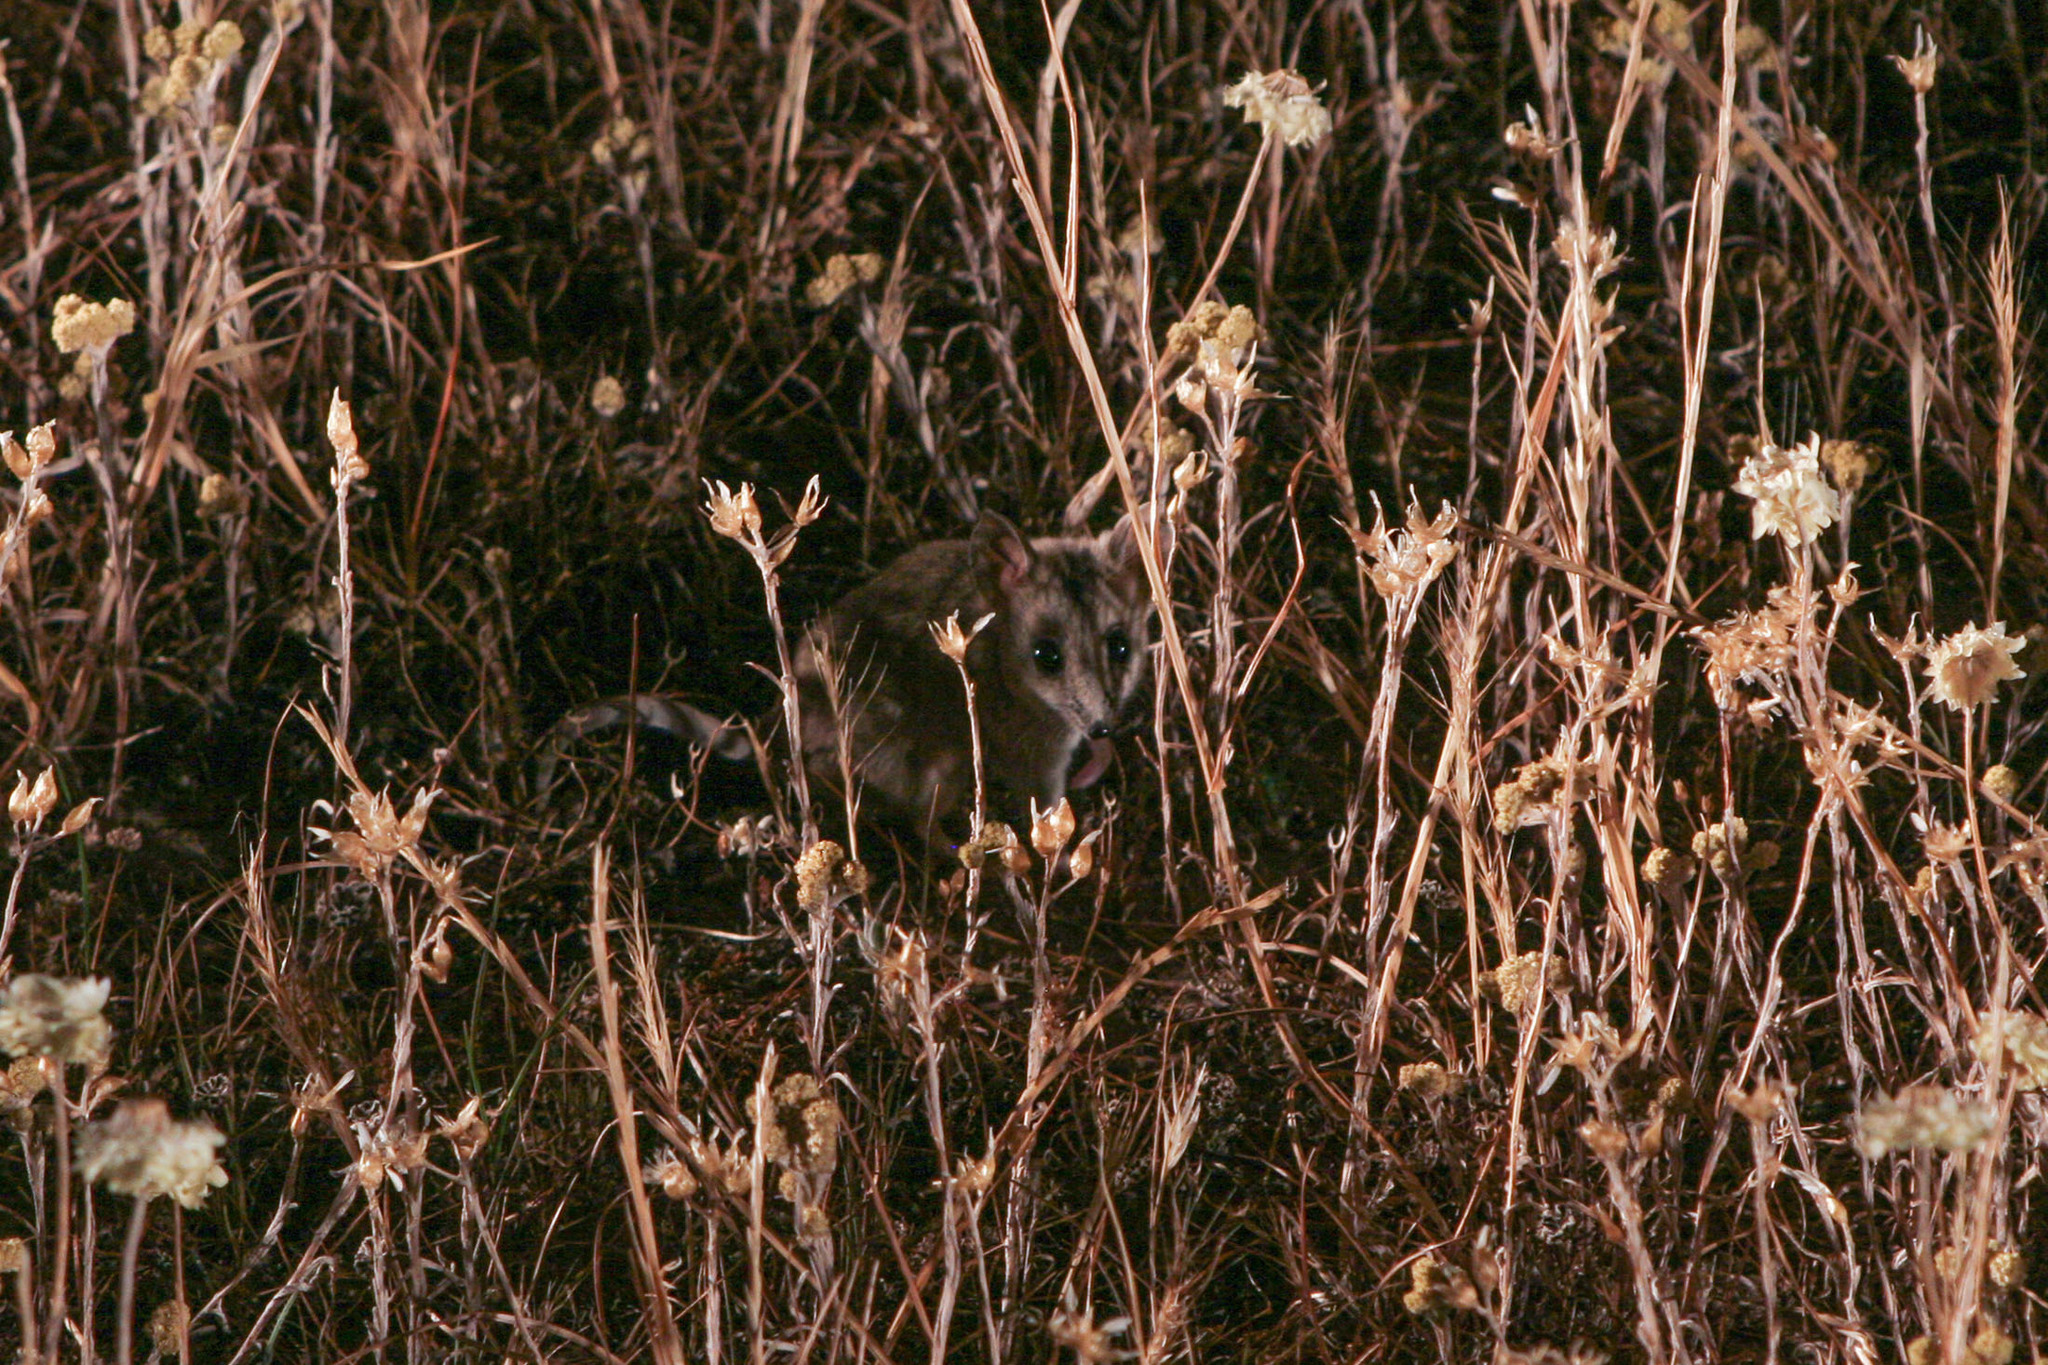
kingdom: Animalia
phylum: Chordata
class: Mammalia
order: Dasyuromorphia
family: Dasyuridae
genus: Sminthopsis
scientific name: Sminthopsis crassicaudata
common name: Fat-tailed dunnart
